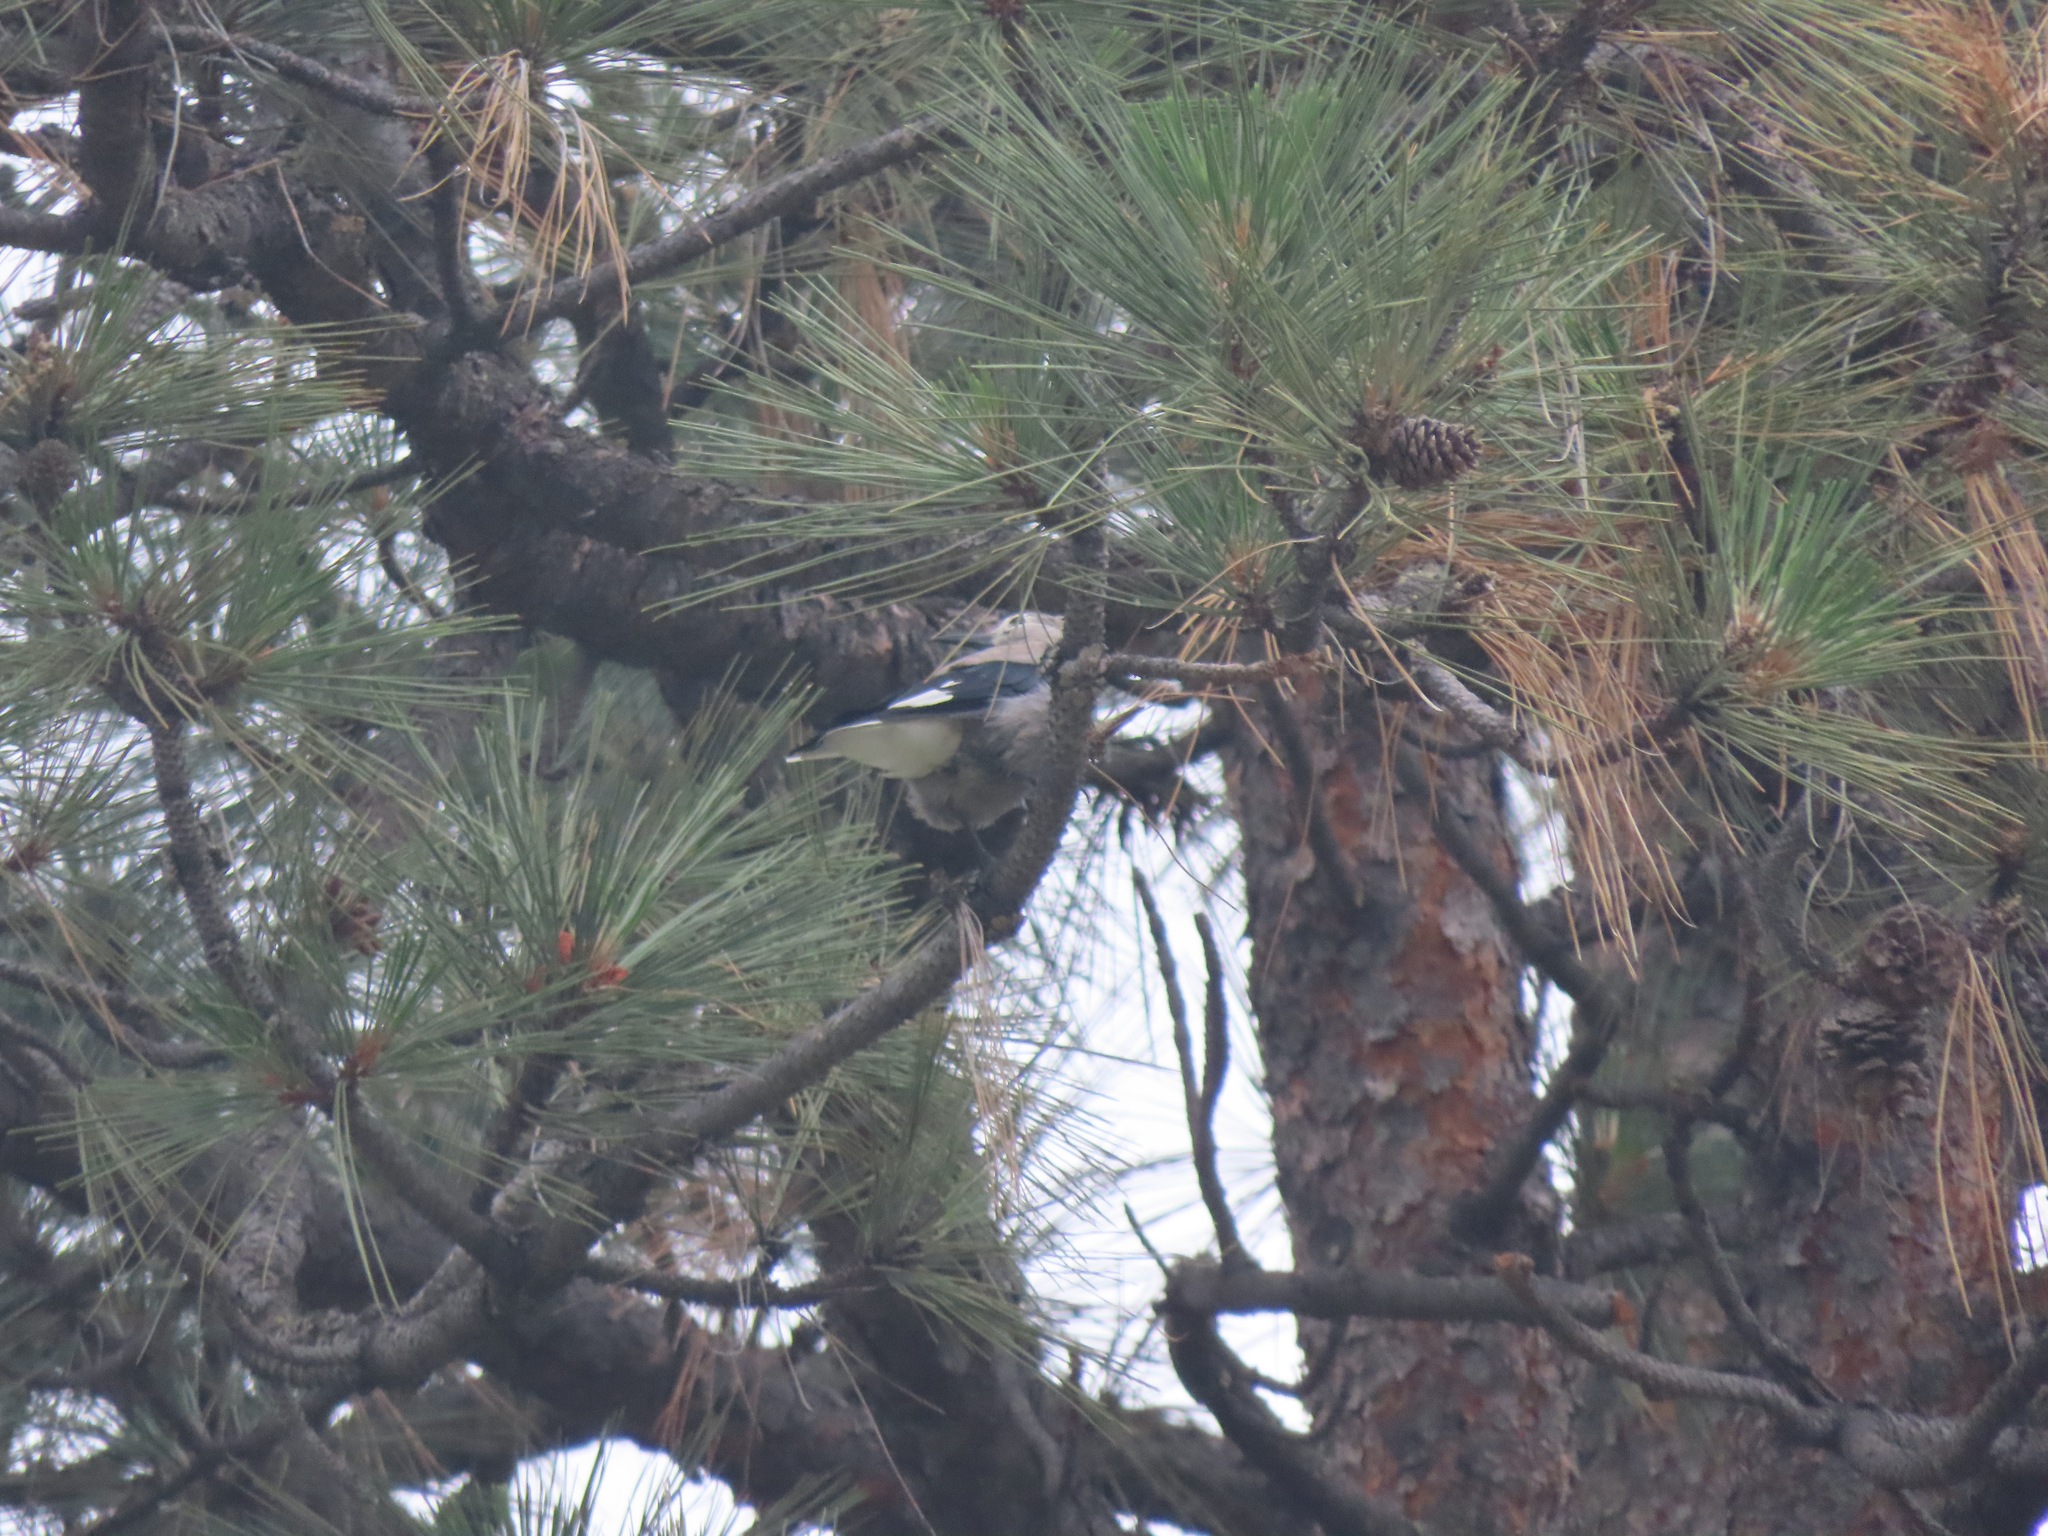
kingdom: Animalia
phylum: Chordata
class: Aves
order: Passeriformes
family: Corvidae
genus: Nucifraga
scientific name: Nucifraga columbiana
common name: Clark's nutcracker
